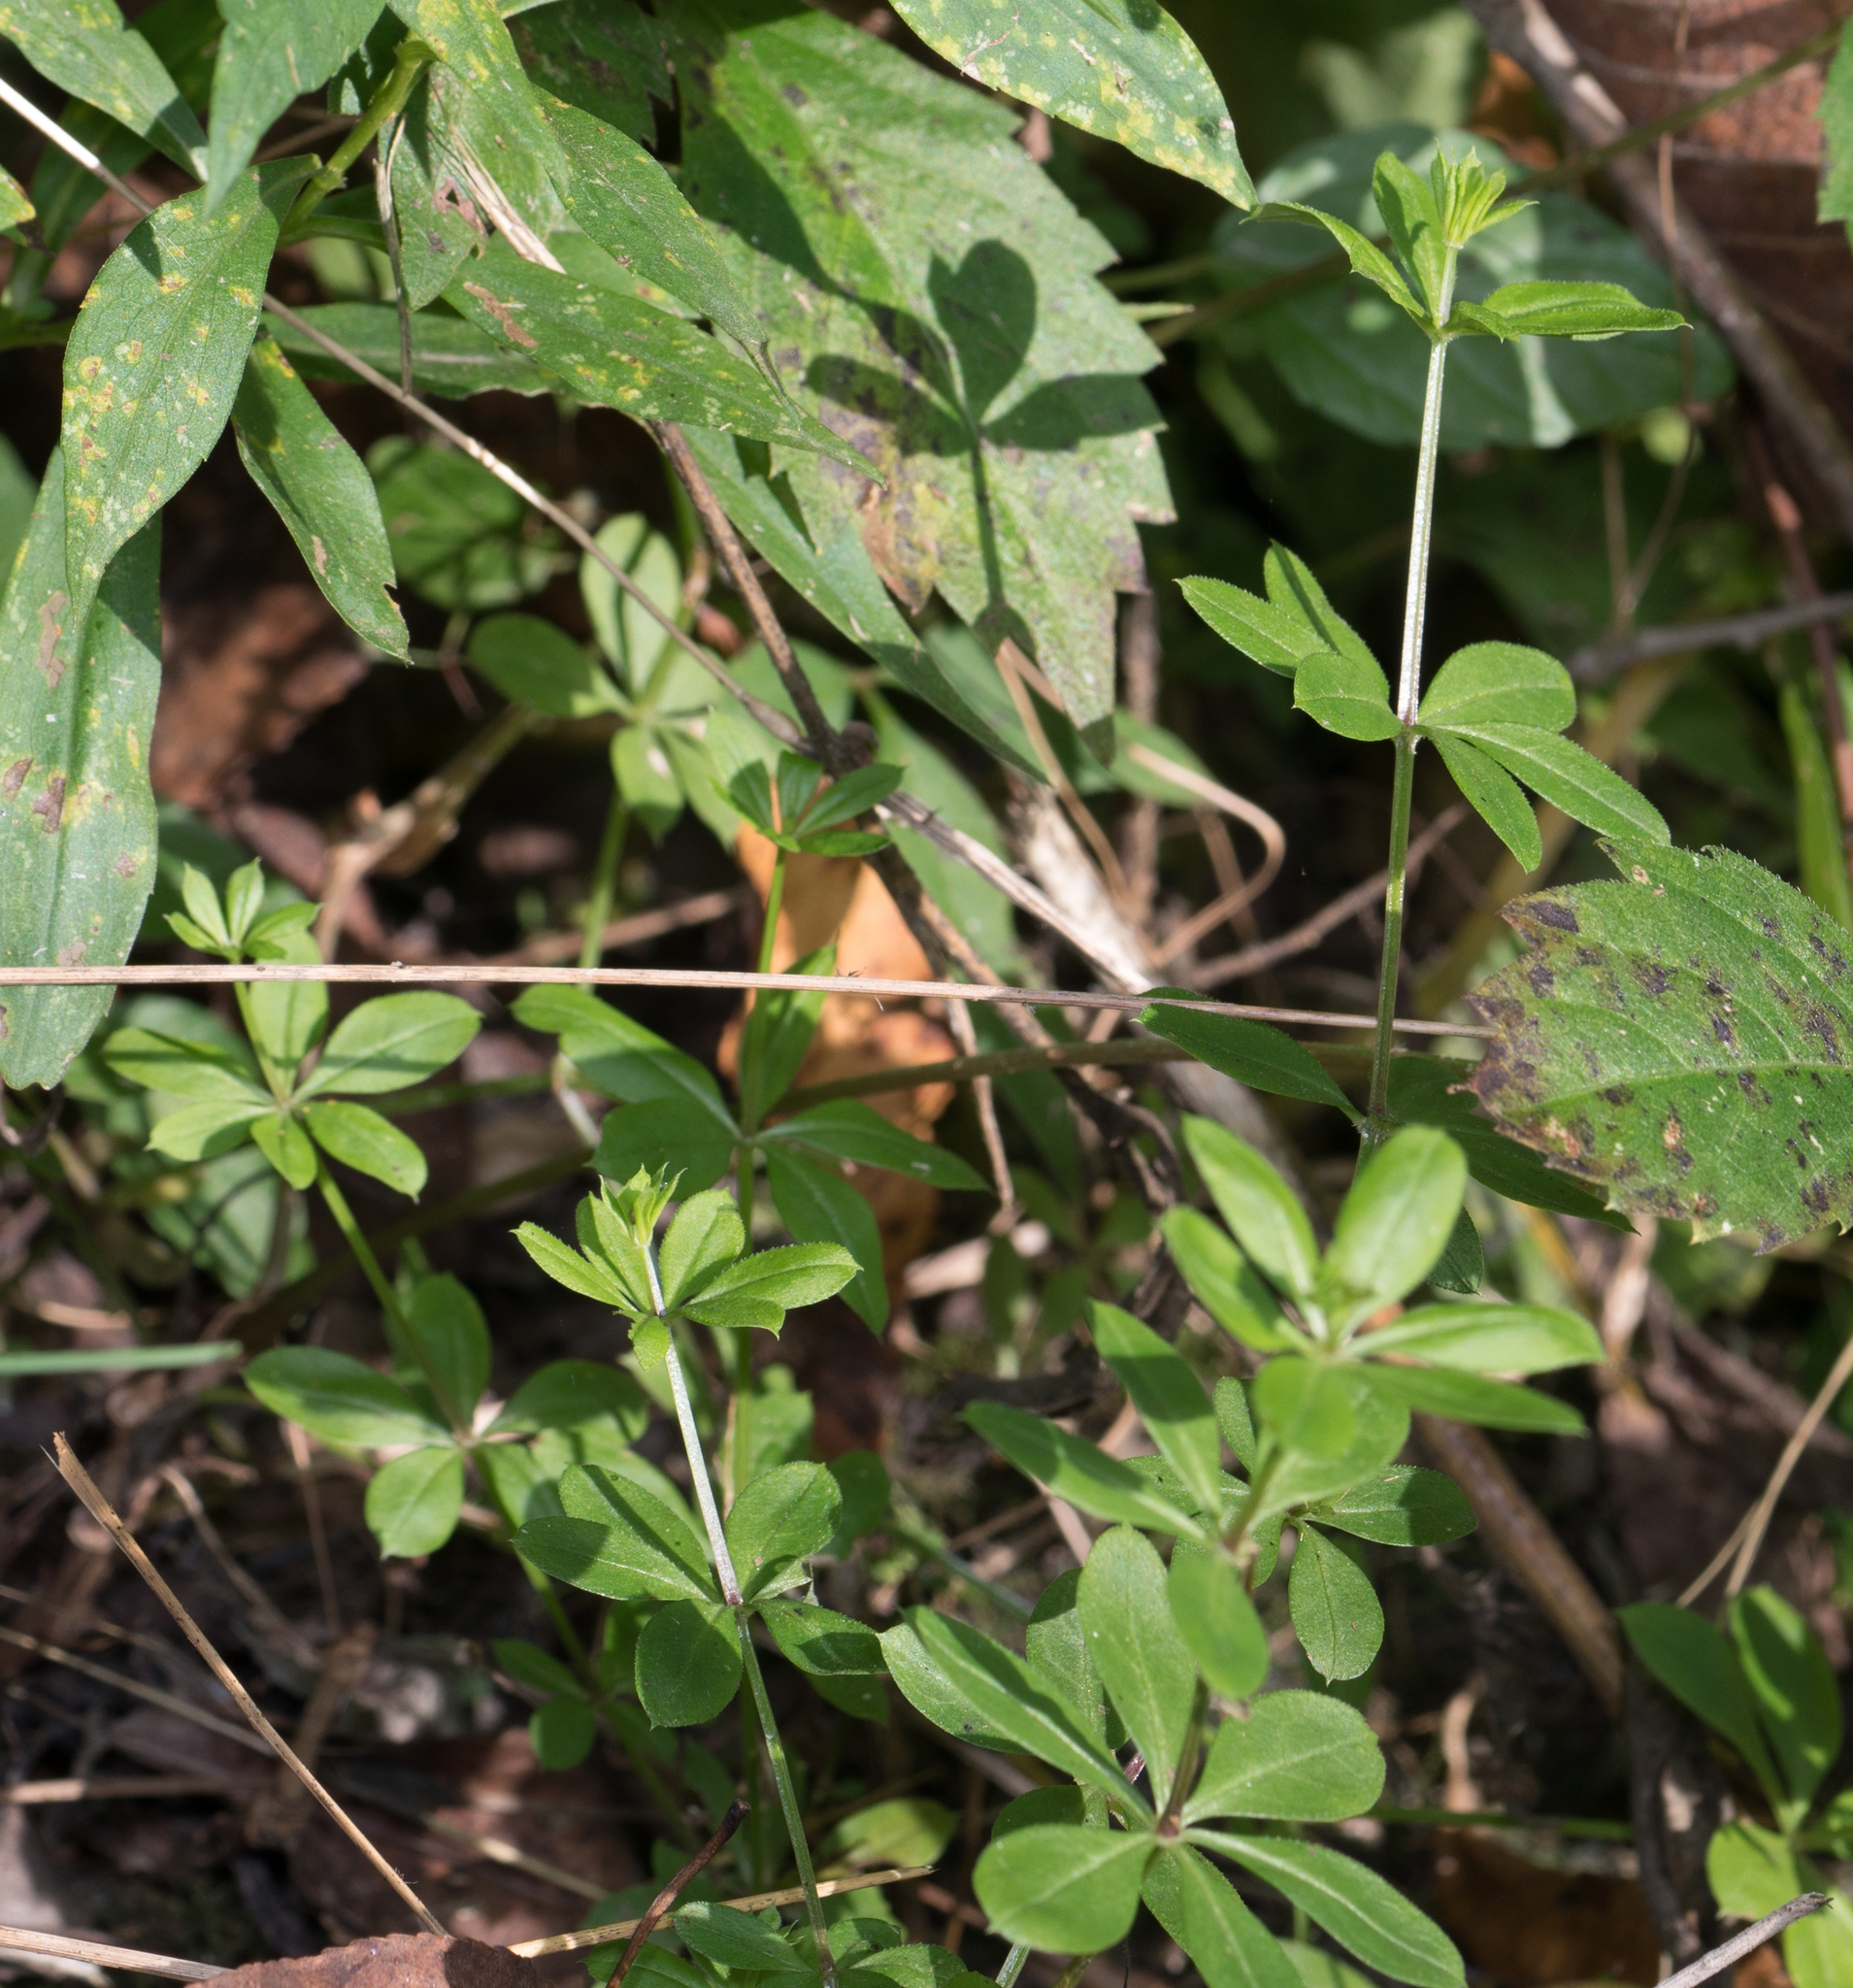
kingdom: Plantae
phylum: Tracheophyta
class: Magnoliopsida
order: Gentianales
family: Rubiaceae
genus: Galium
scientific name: Galium triflorum
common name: Fragrant bedstraw
